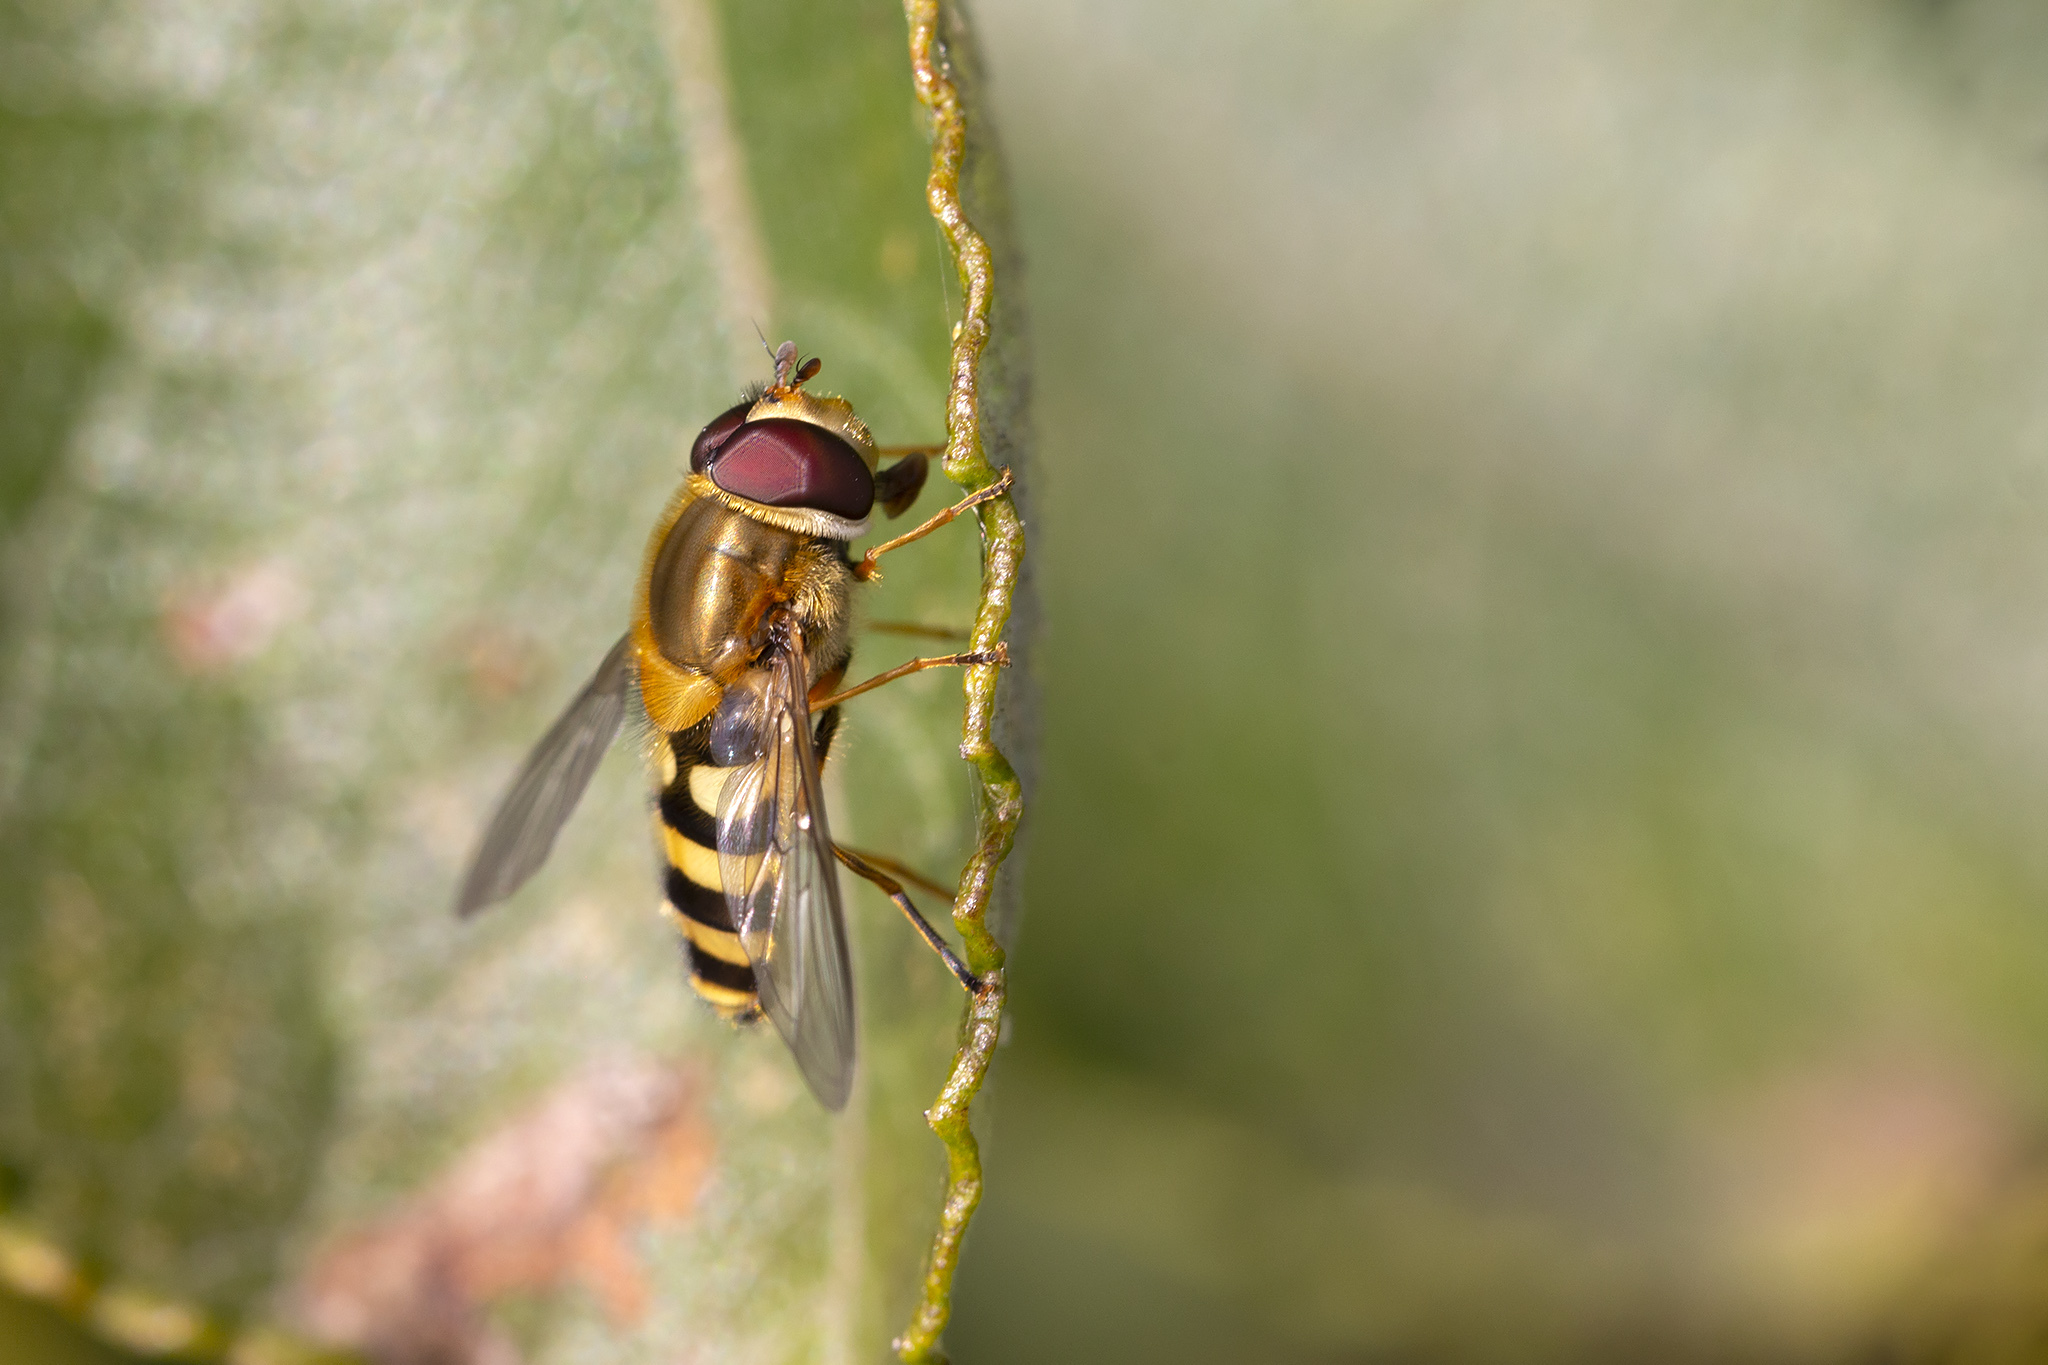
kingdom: Animalia
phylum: Arthropoda
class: Insecta
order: Diptera
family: Syrphidae
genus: Syrphus
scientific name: Syrphus
